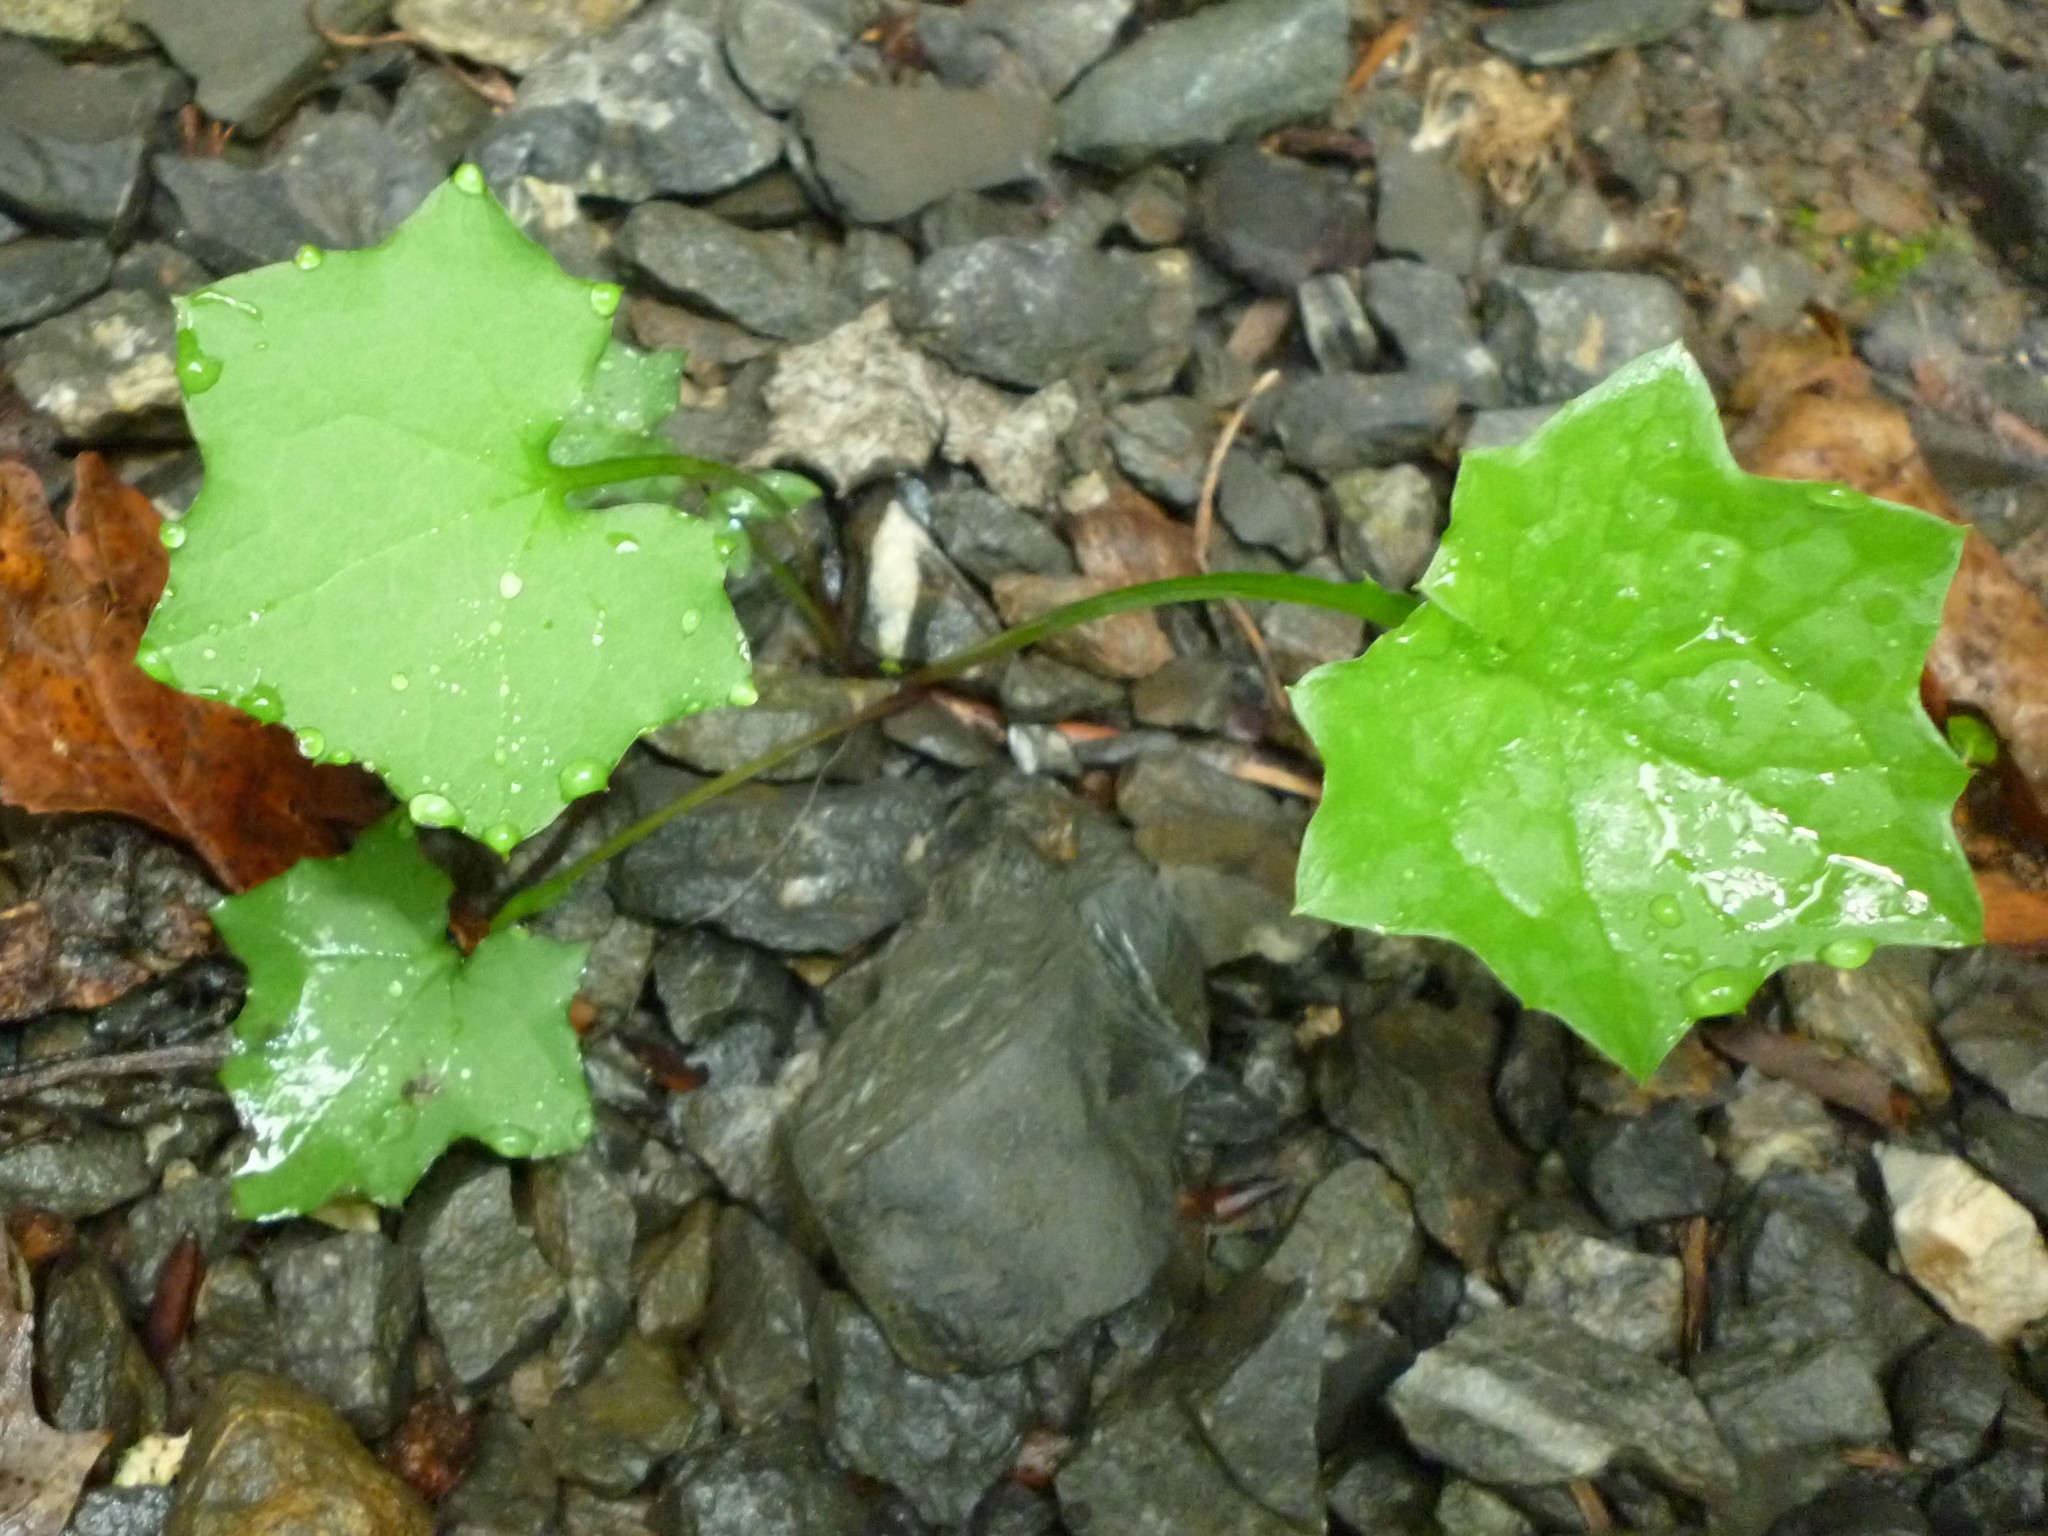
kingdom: Plantae
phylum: Tracheophyta
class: Magnoliopsida
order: Asterales
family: Asteraceae
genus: Mycelis
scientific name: Mycelis muralis
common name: Wall lettuce
